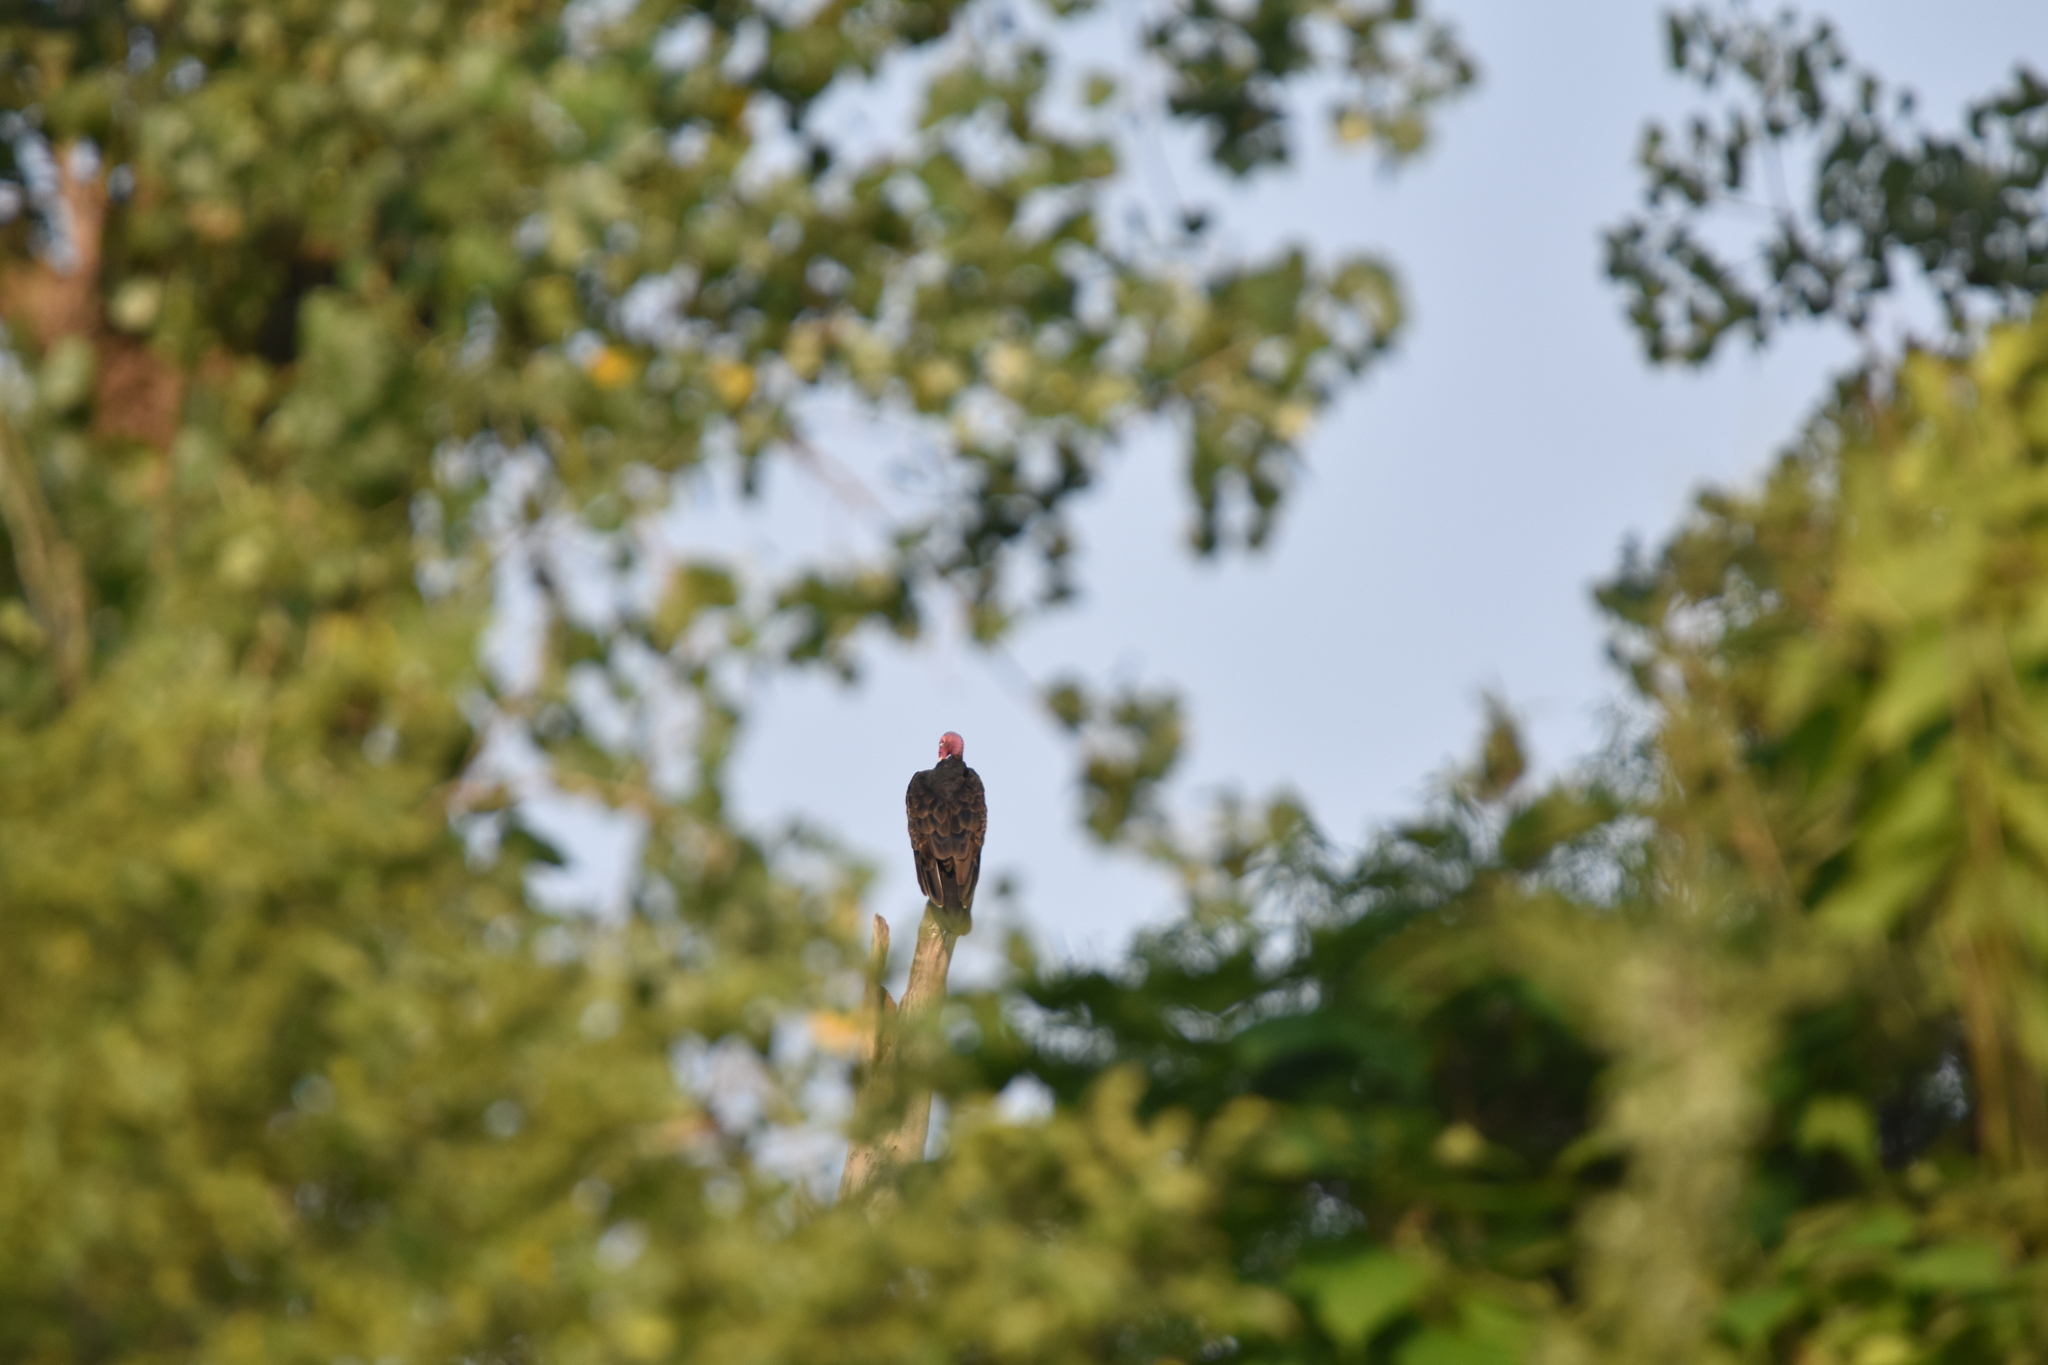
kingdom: Animalia
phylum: Chordata
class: Aves
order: Accipitriformes
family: Cathartidae
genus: Cathartes
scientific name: Cathartes aura
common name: Turkey vulture
